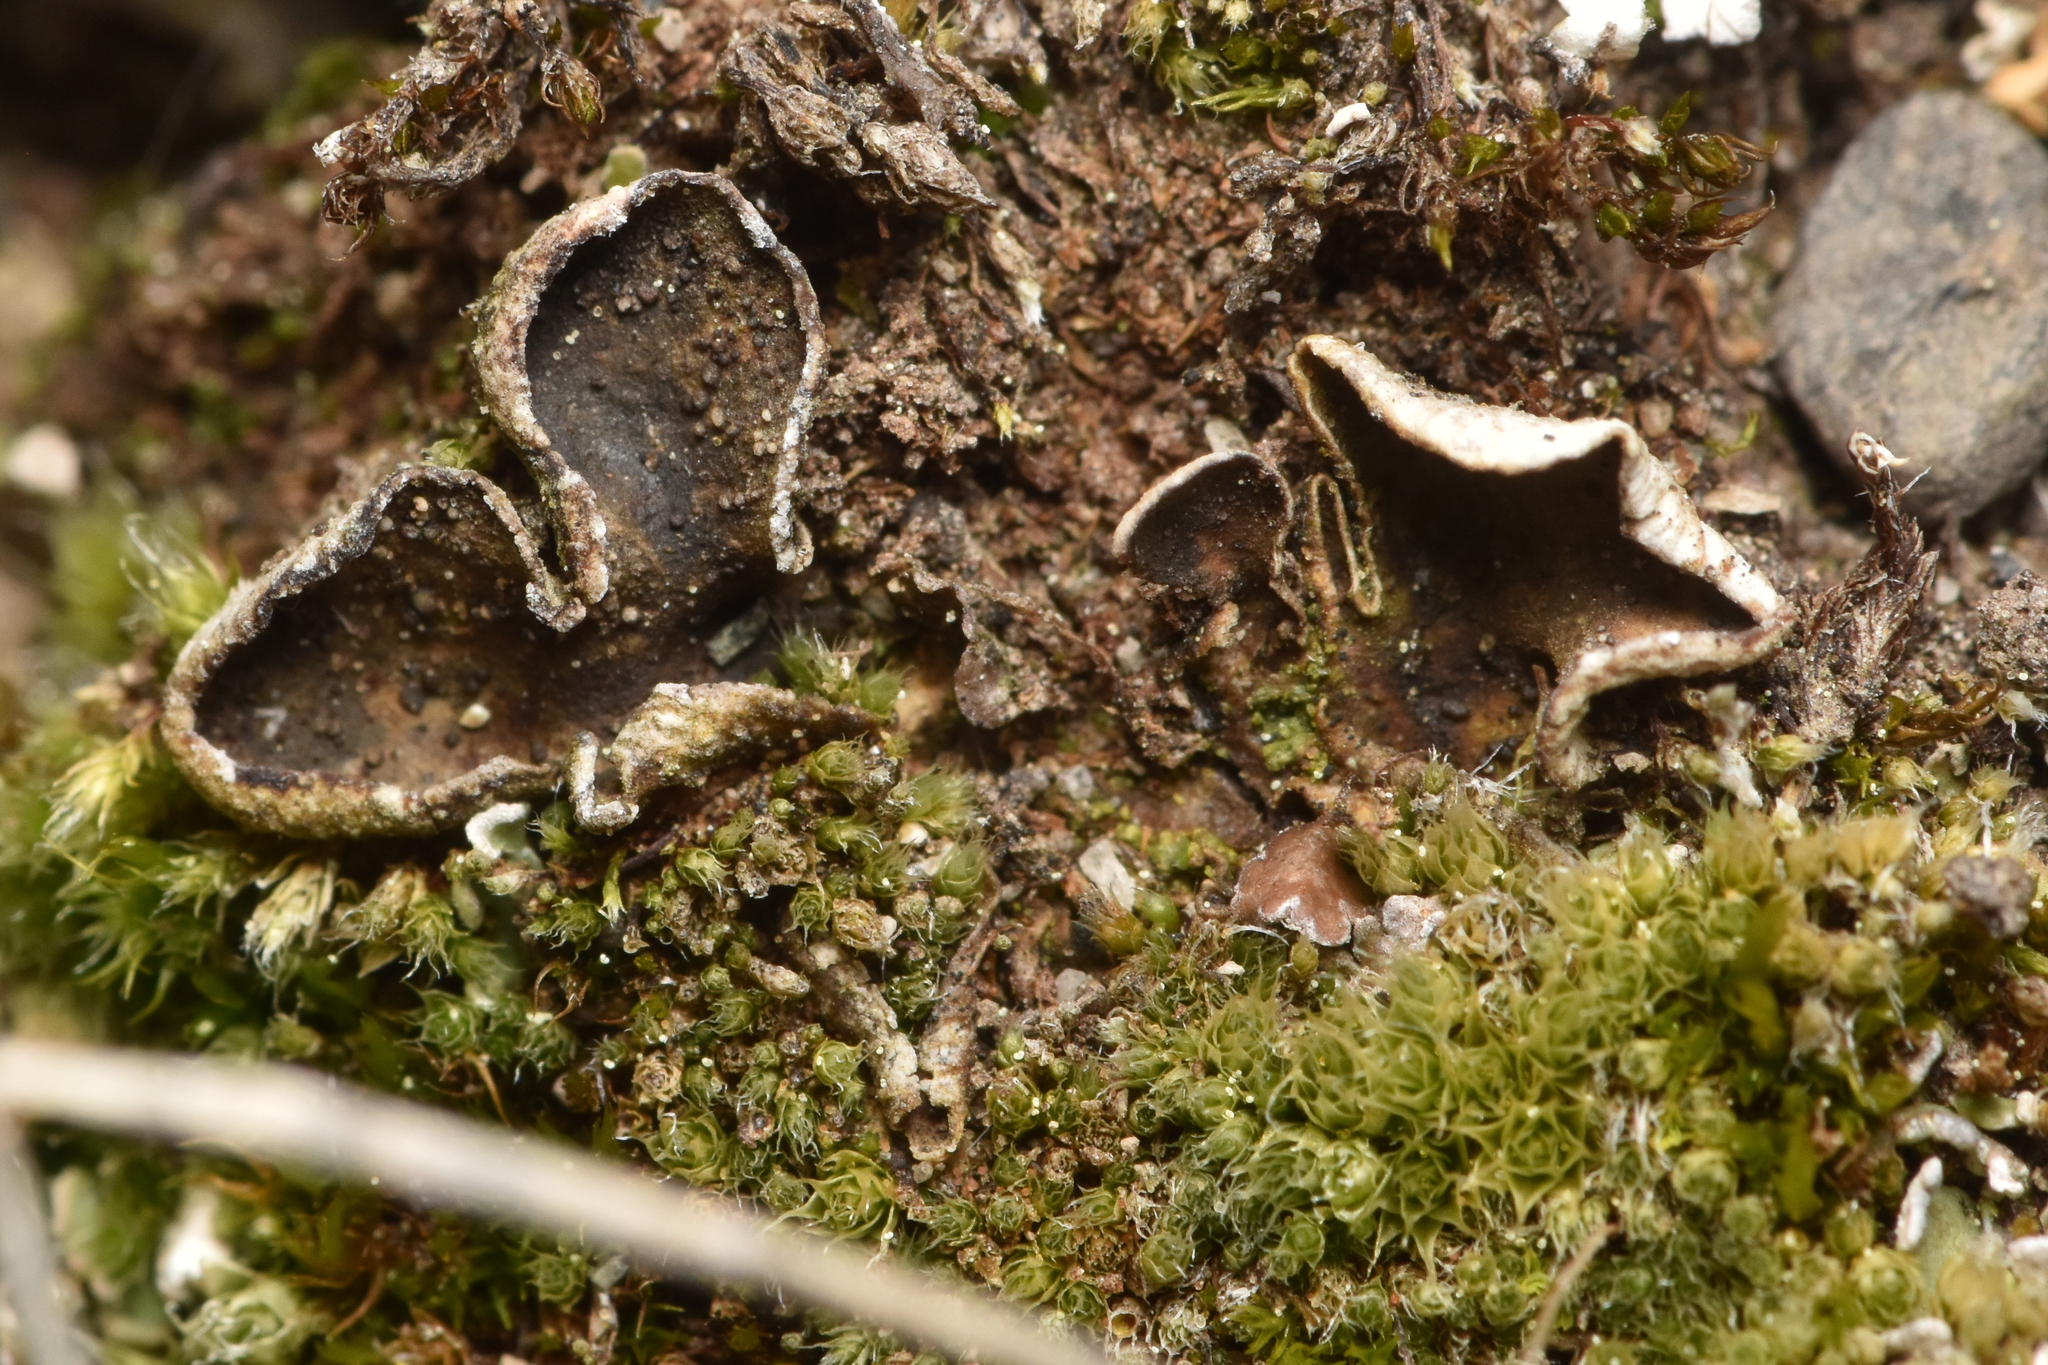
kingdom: Fungi
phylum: Ascomycota
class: Lecanoromycetes
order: Peltigerales
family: Peltigeraceae
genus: Peltigera
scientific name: Peltigera didactyla
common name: Alternating dog lichen
